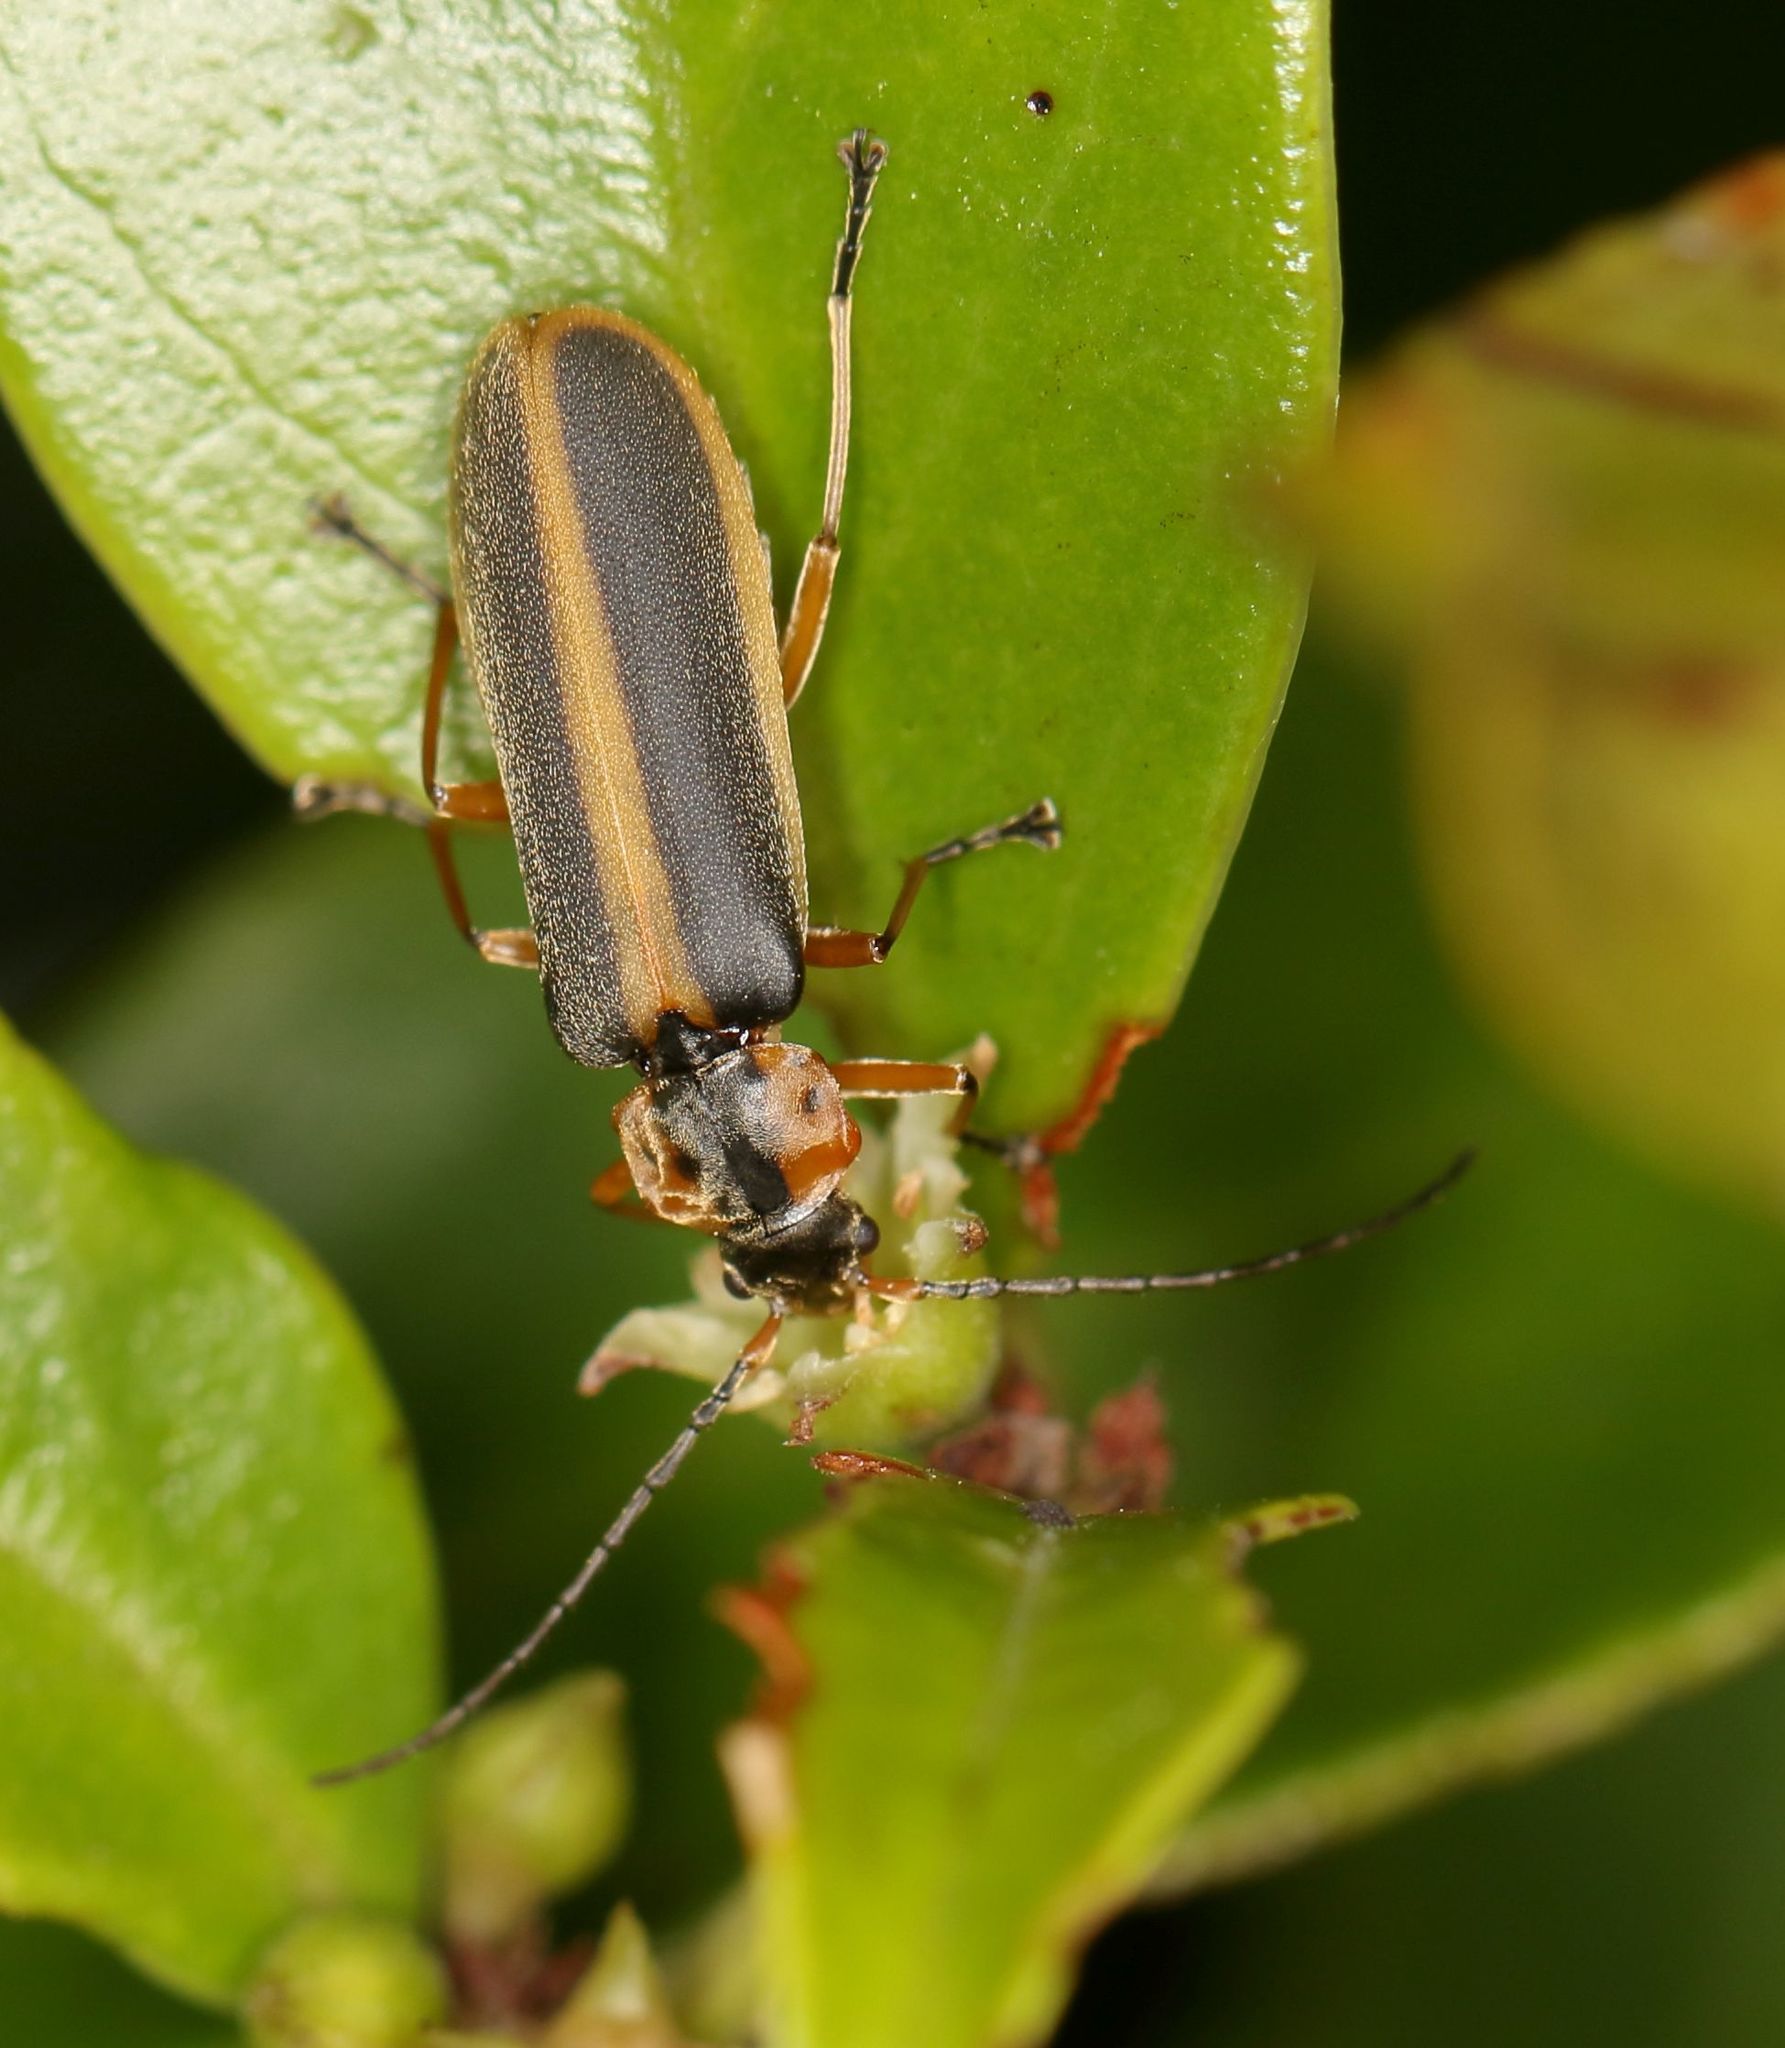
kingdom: Animalia
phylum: Arthropoda
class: Insecta
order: Coleoptera
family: Cantharidae
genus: Afronycha
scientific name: Afronycha
